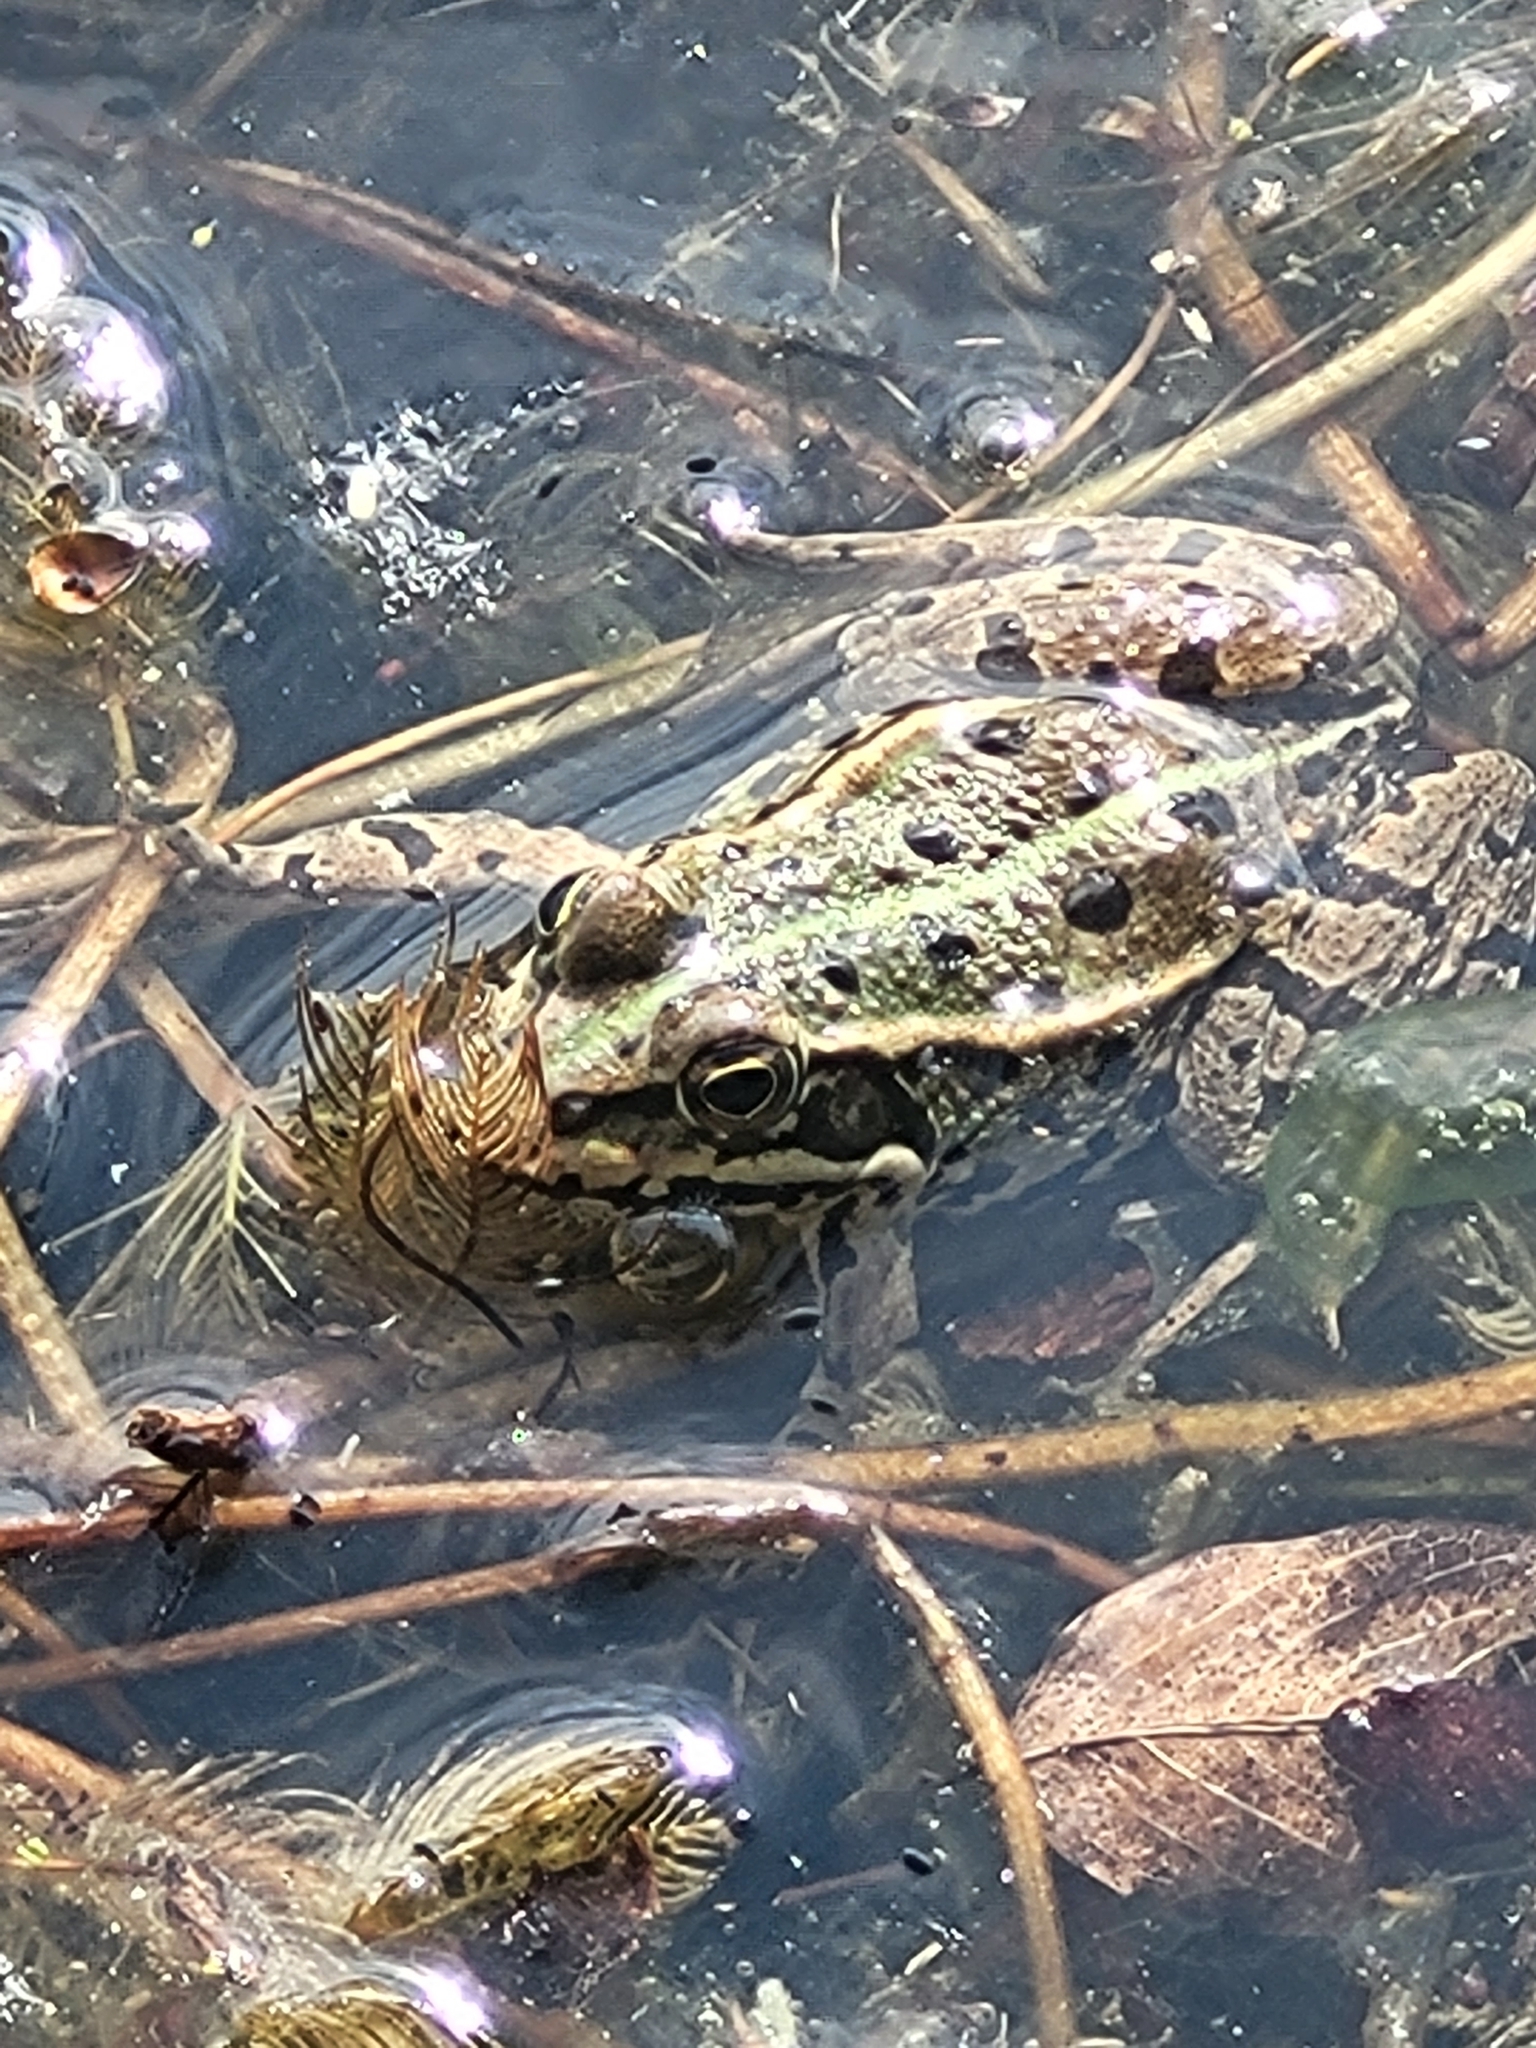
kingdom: Animalia
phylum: Chordata
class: Amphibia
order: Anura
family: Ranidae
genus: Pelophylax
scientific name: Pelophylax
